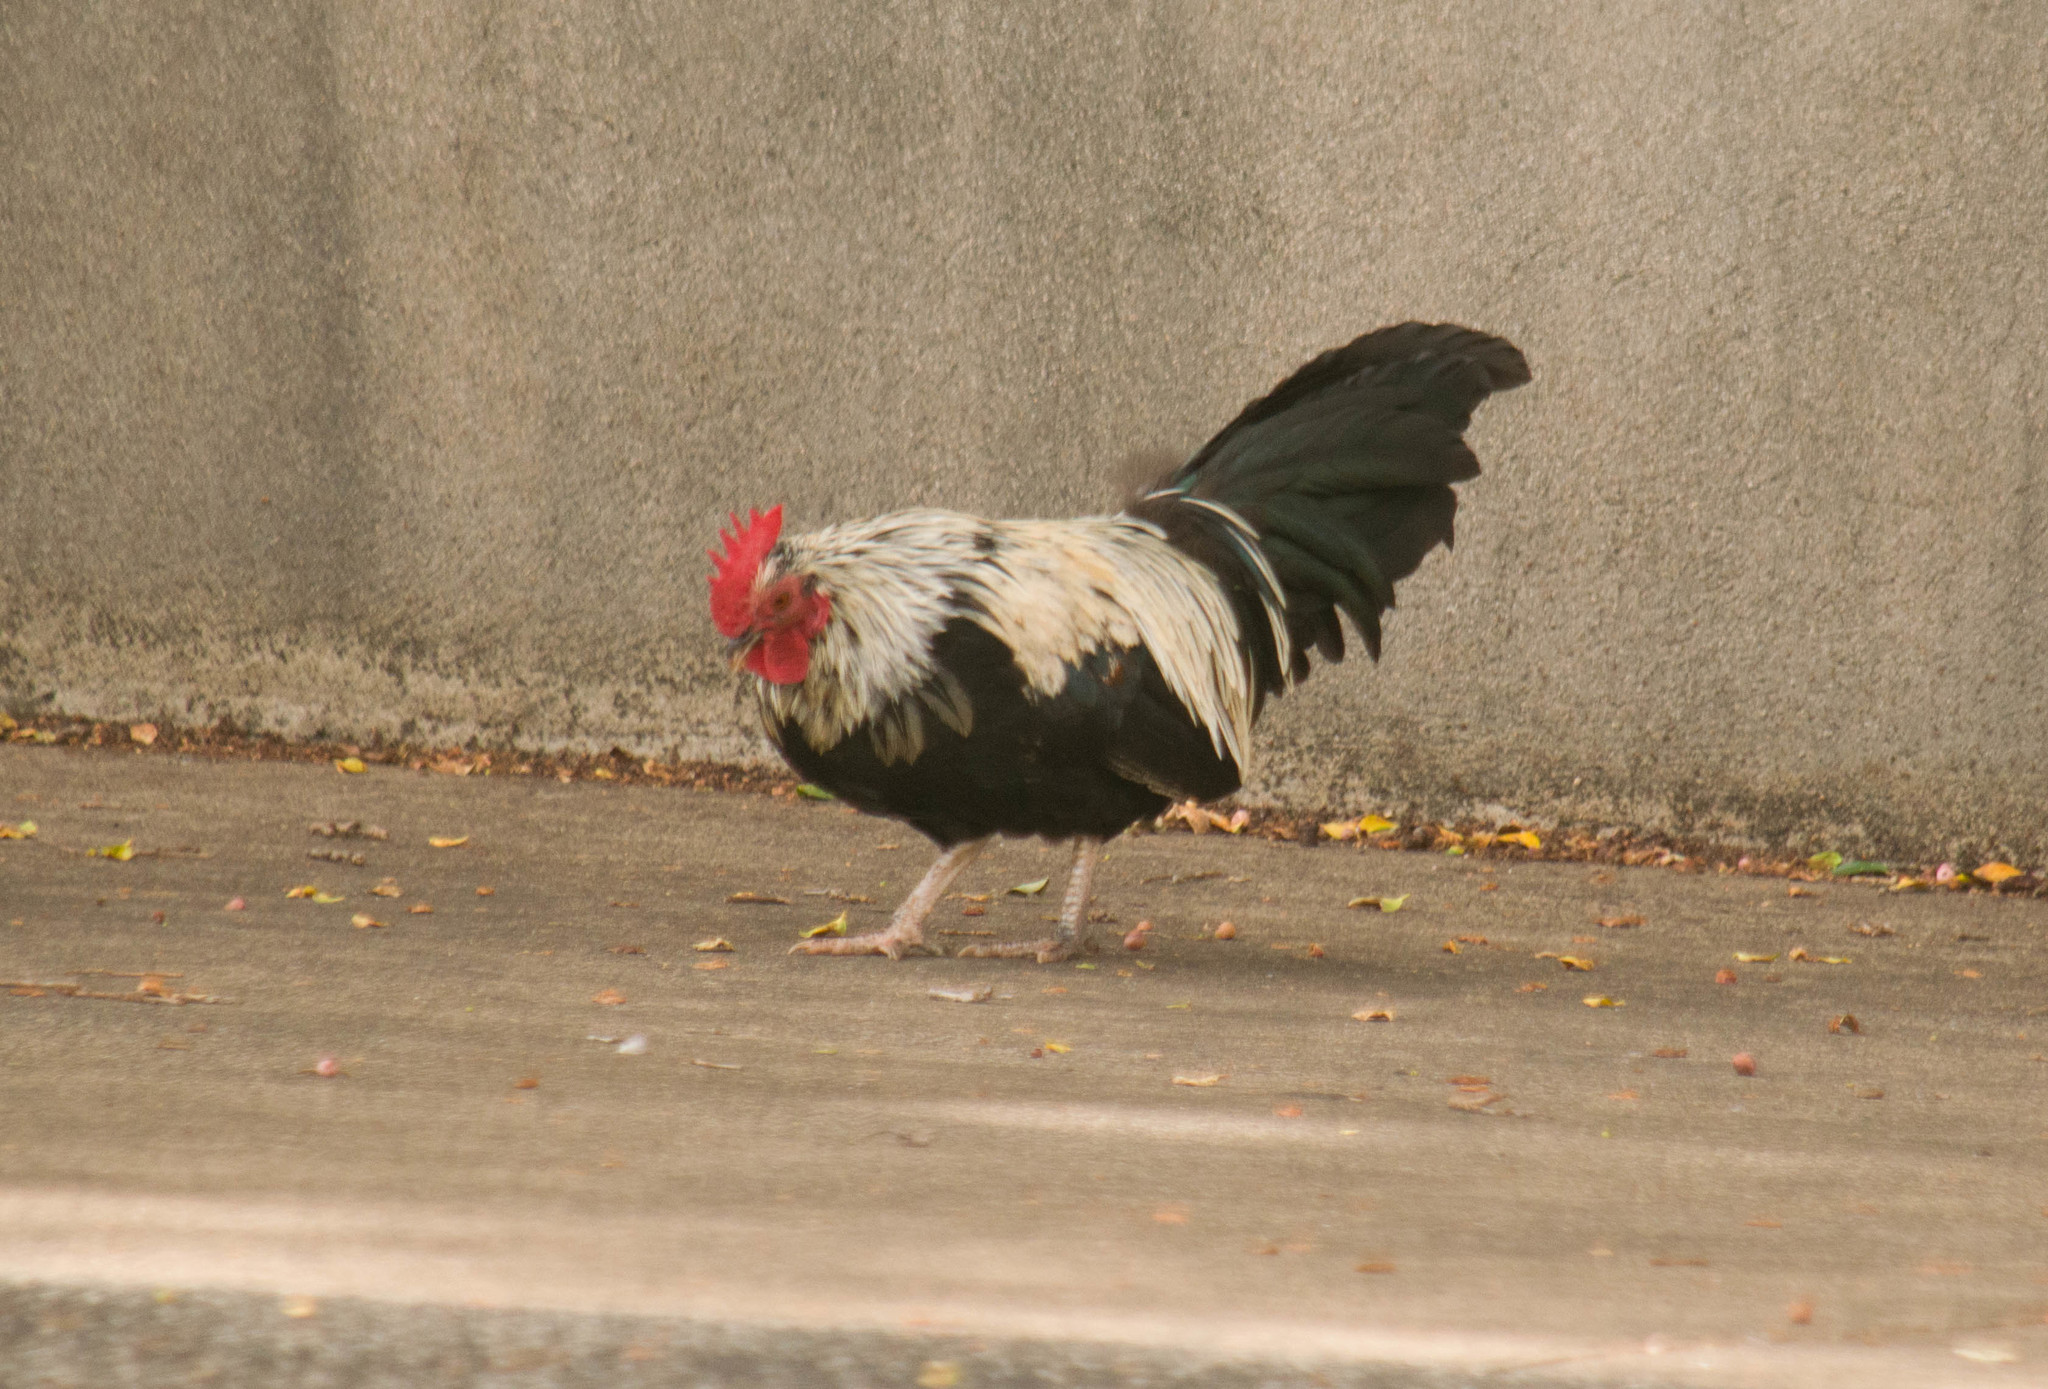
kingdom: Animalia
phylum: Chordata
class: Aves
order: Galliformes
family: Phasianidae
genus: Gallus
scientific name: Gallus gallus
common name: Red junglefowl
